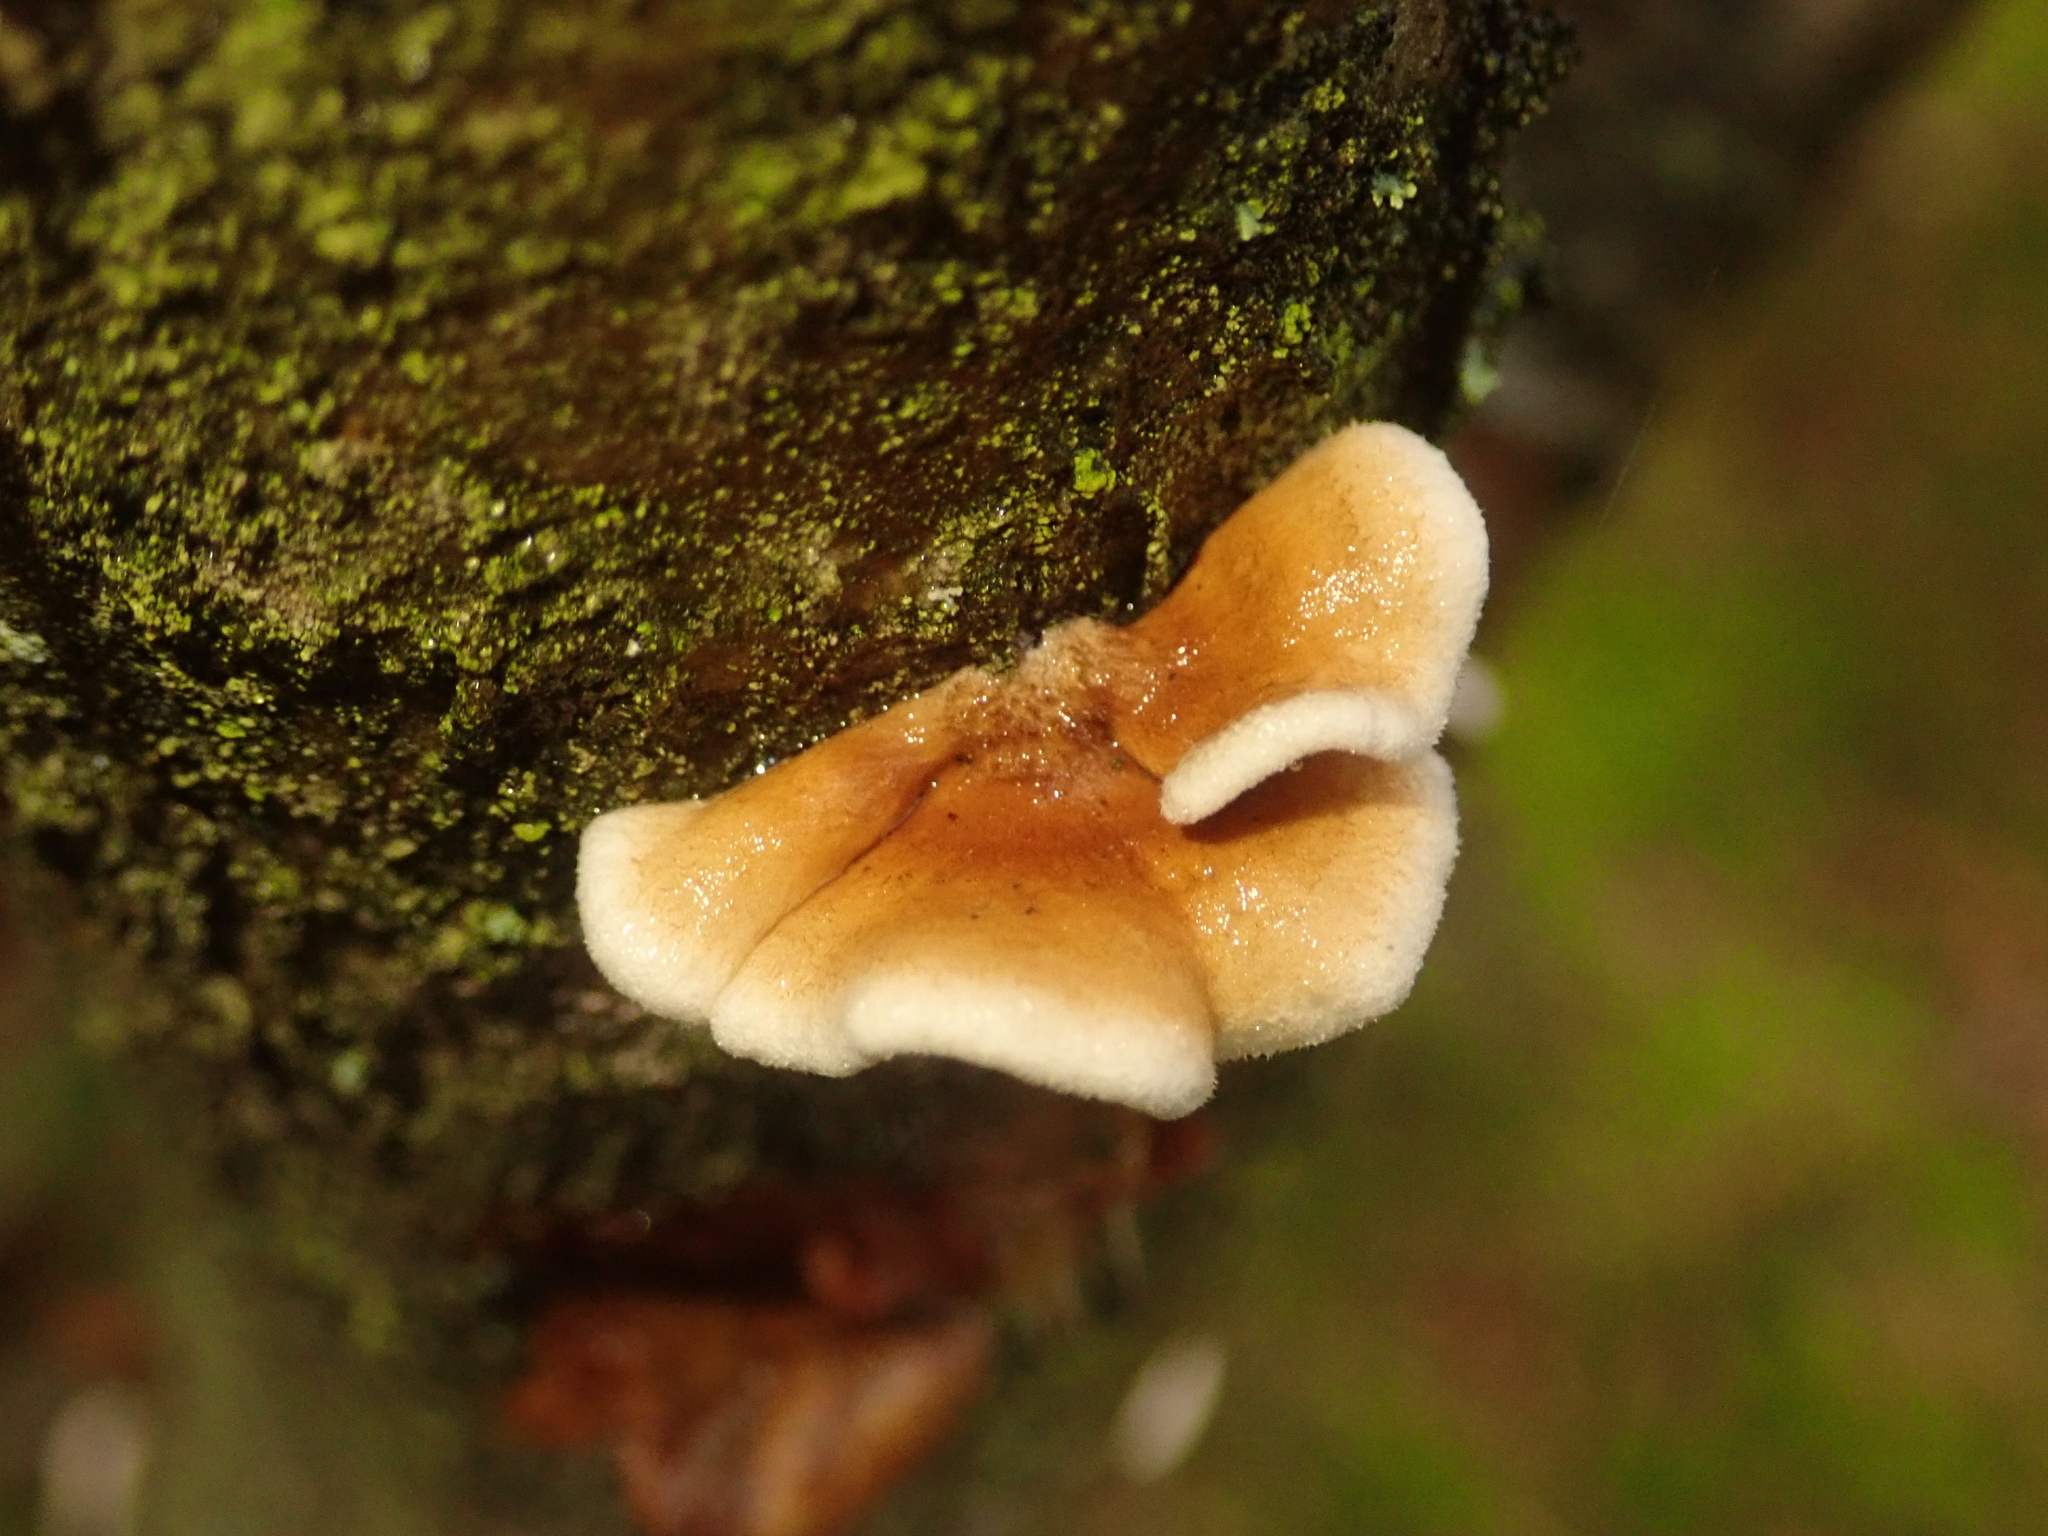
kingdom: Fungi
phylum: Basidiomycota
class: Agaricomycetes
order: Amylocorticiales
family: Amylocorticiaceae
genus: Plicaturopsis
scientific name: Plicaturopsis crispa
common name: Crimped gill
